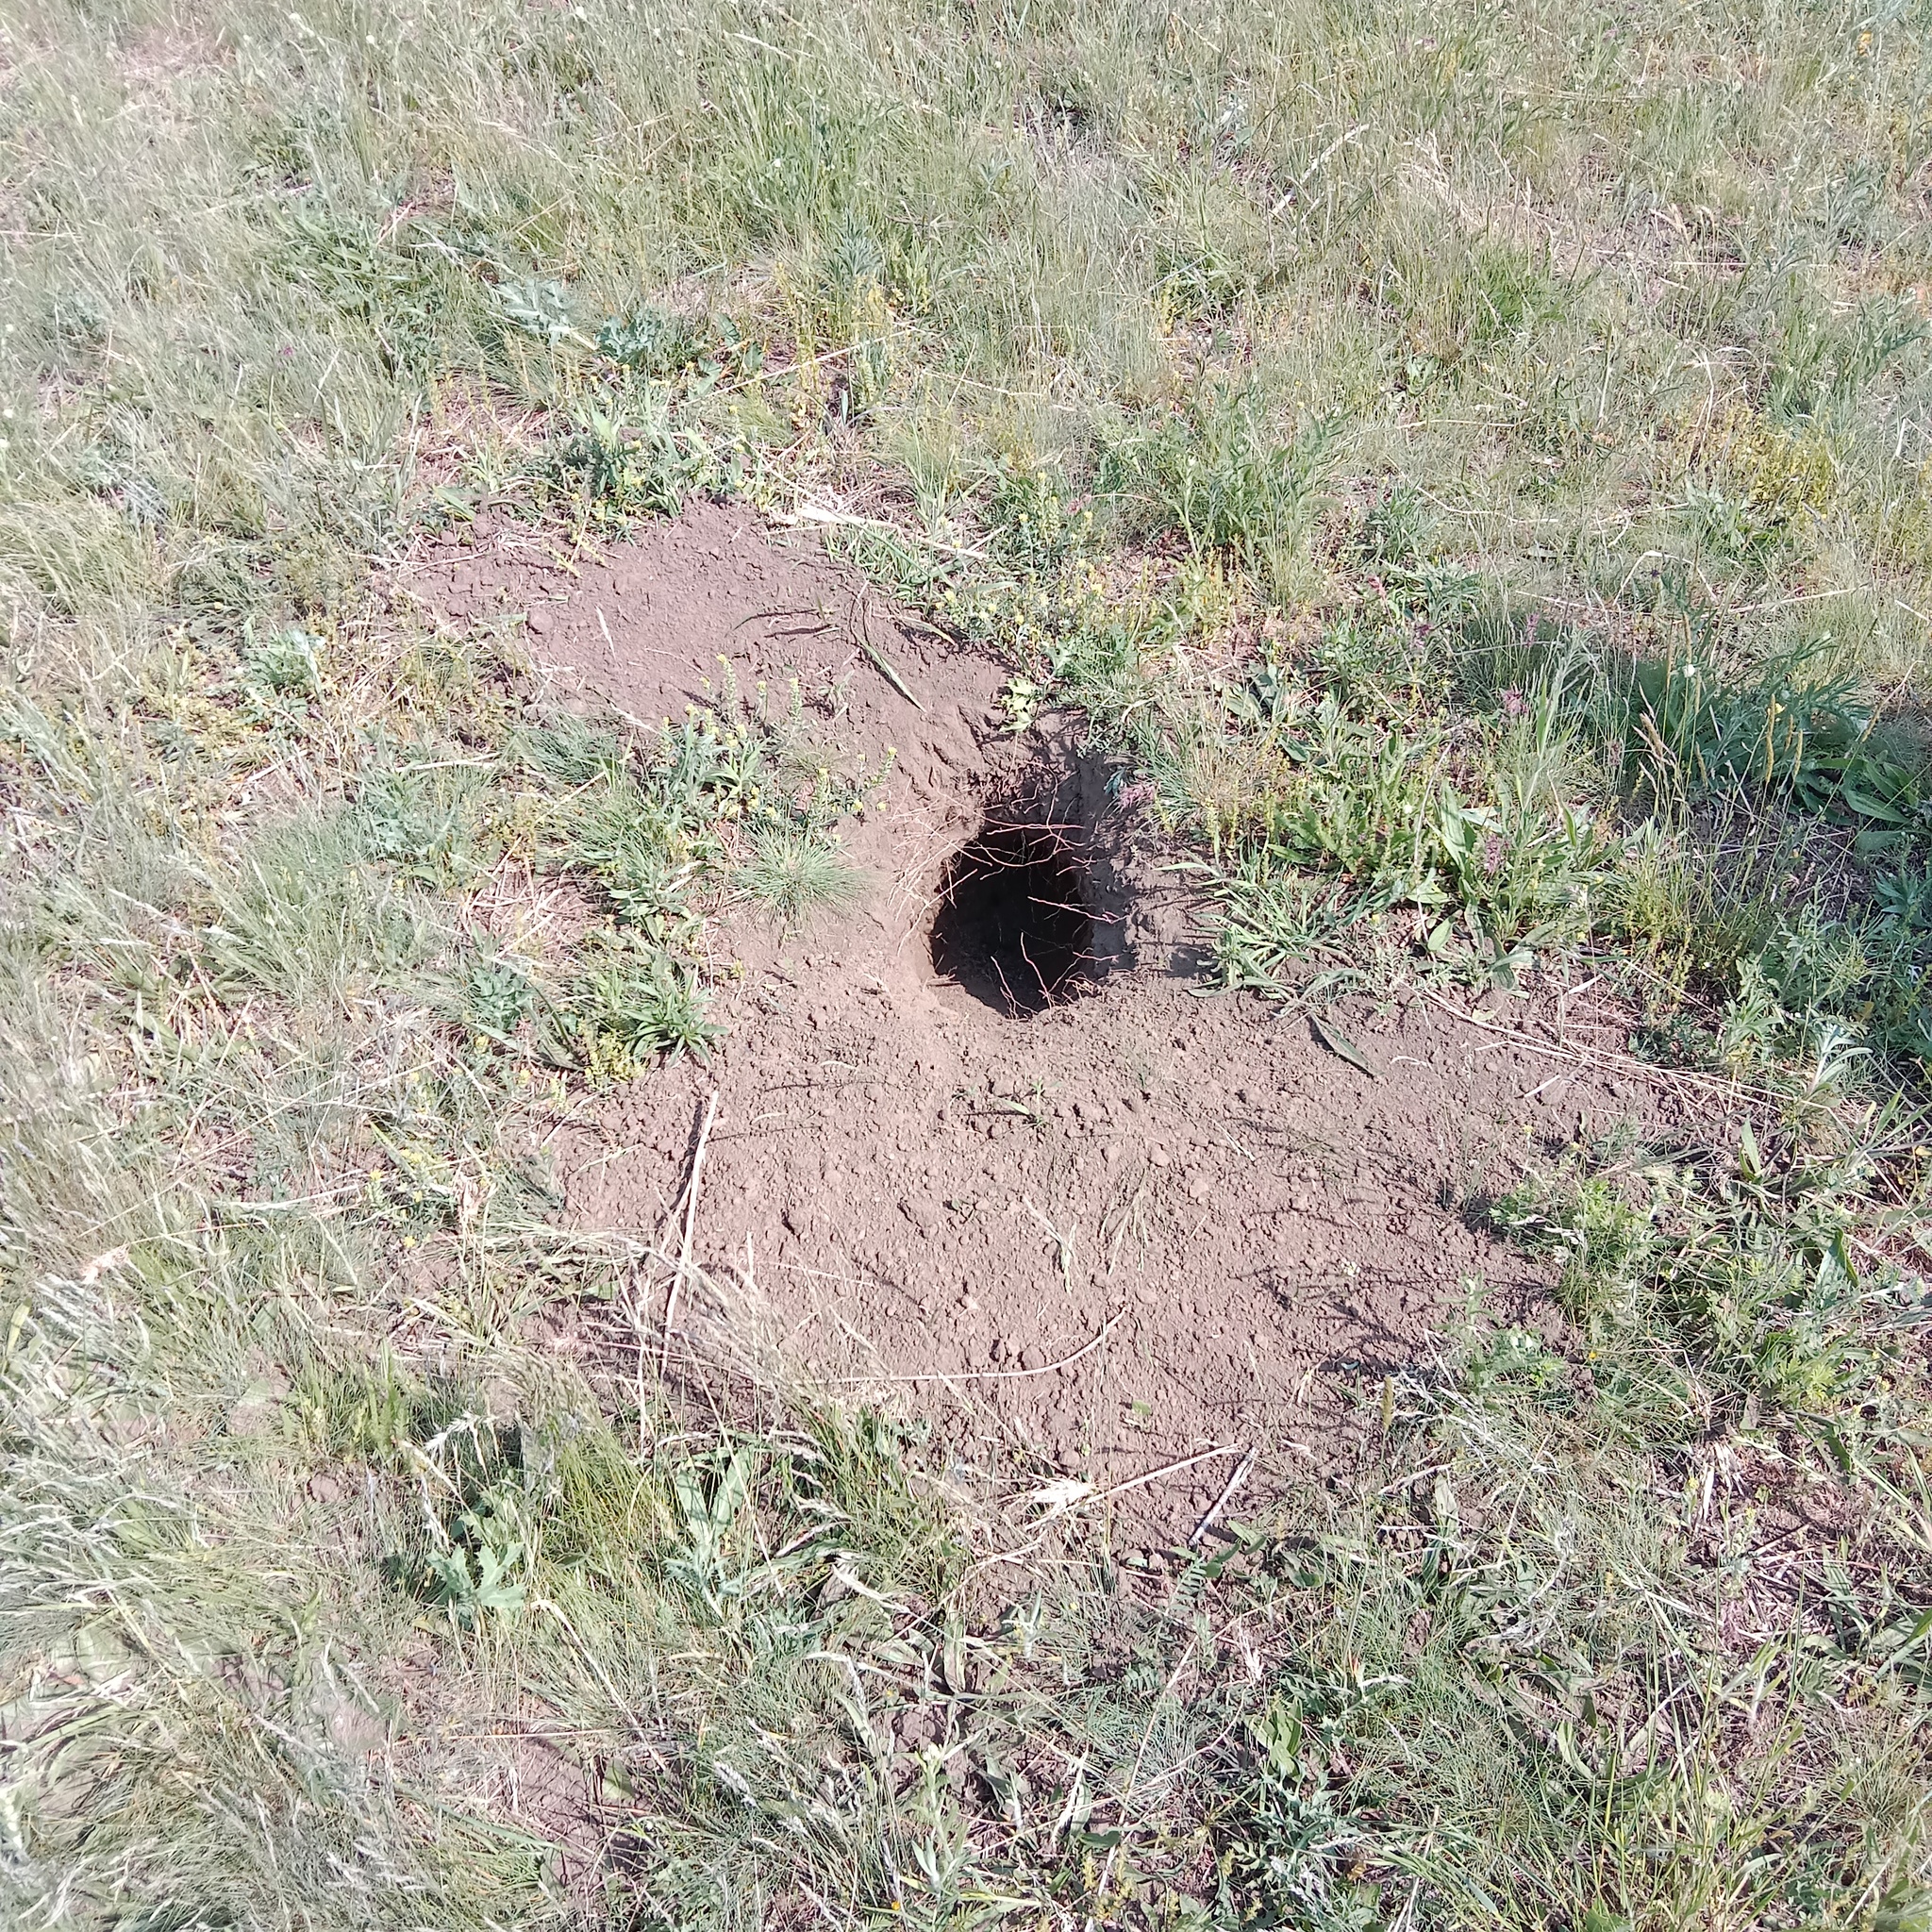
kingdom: Animalia
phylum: Chordata
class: Mammalia
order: Rodentia
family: Sciuridae
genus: Marmota
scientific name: Marmota bobak
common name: Bobak marmot
